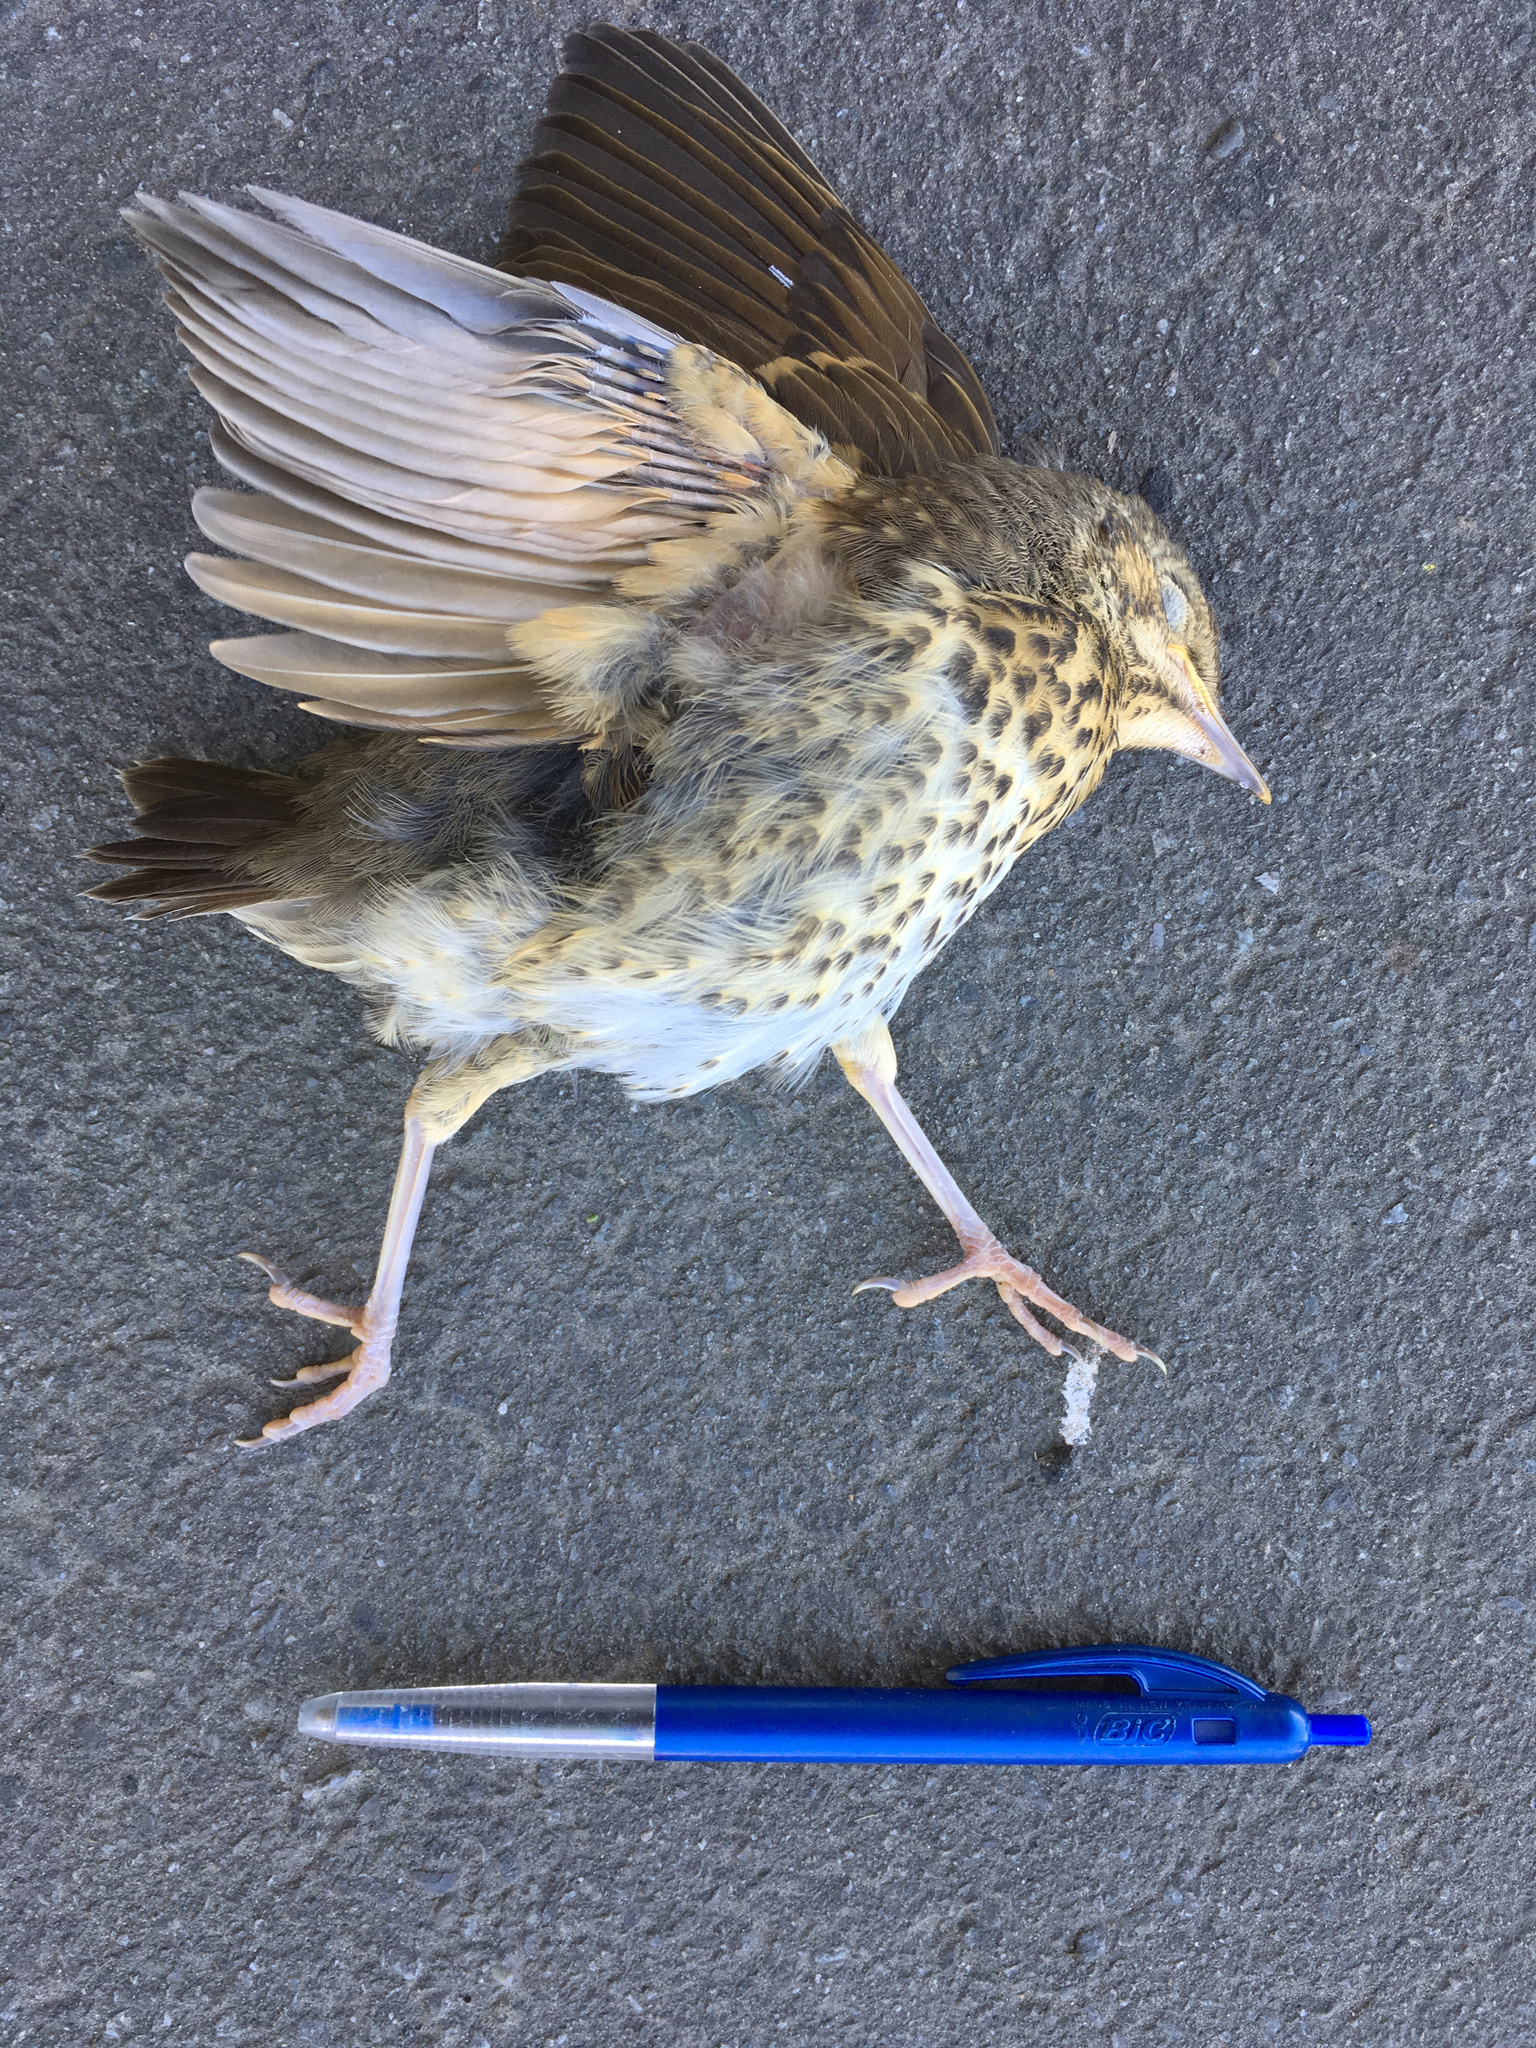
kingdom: Animalia
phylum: Chordata
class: Aves
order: Passeriformes
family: Turdidae
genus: Turdus
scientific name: Turdus philomelos
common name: Song thrush
